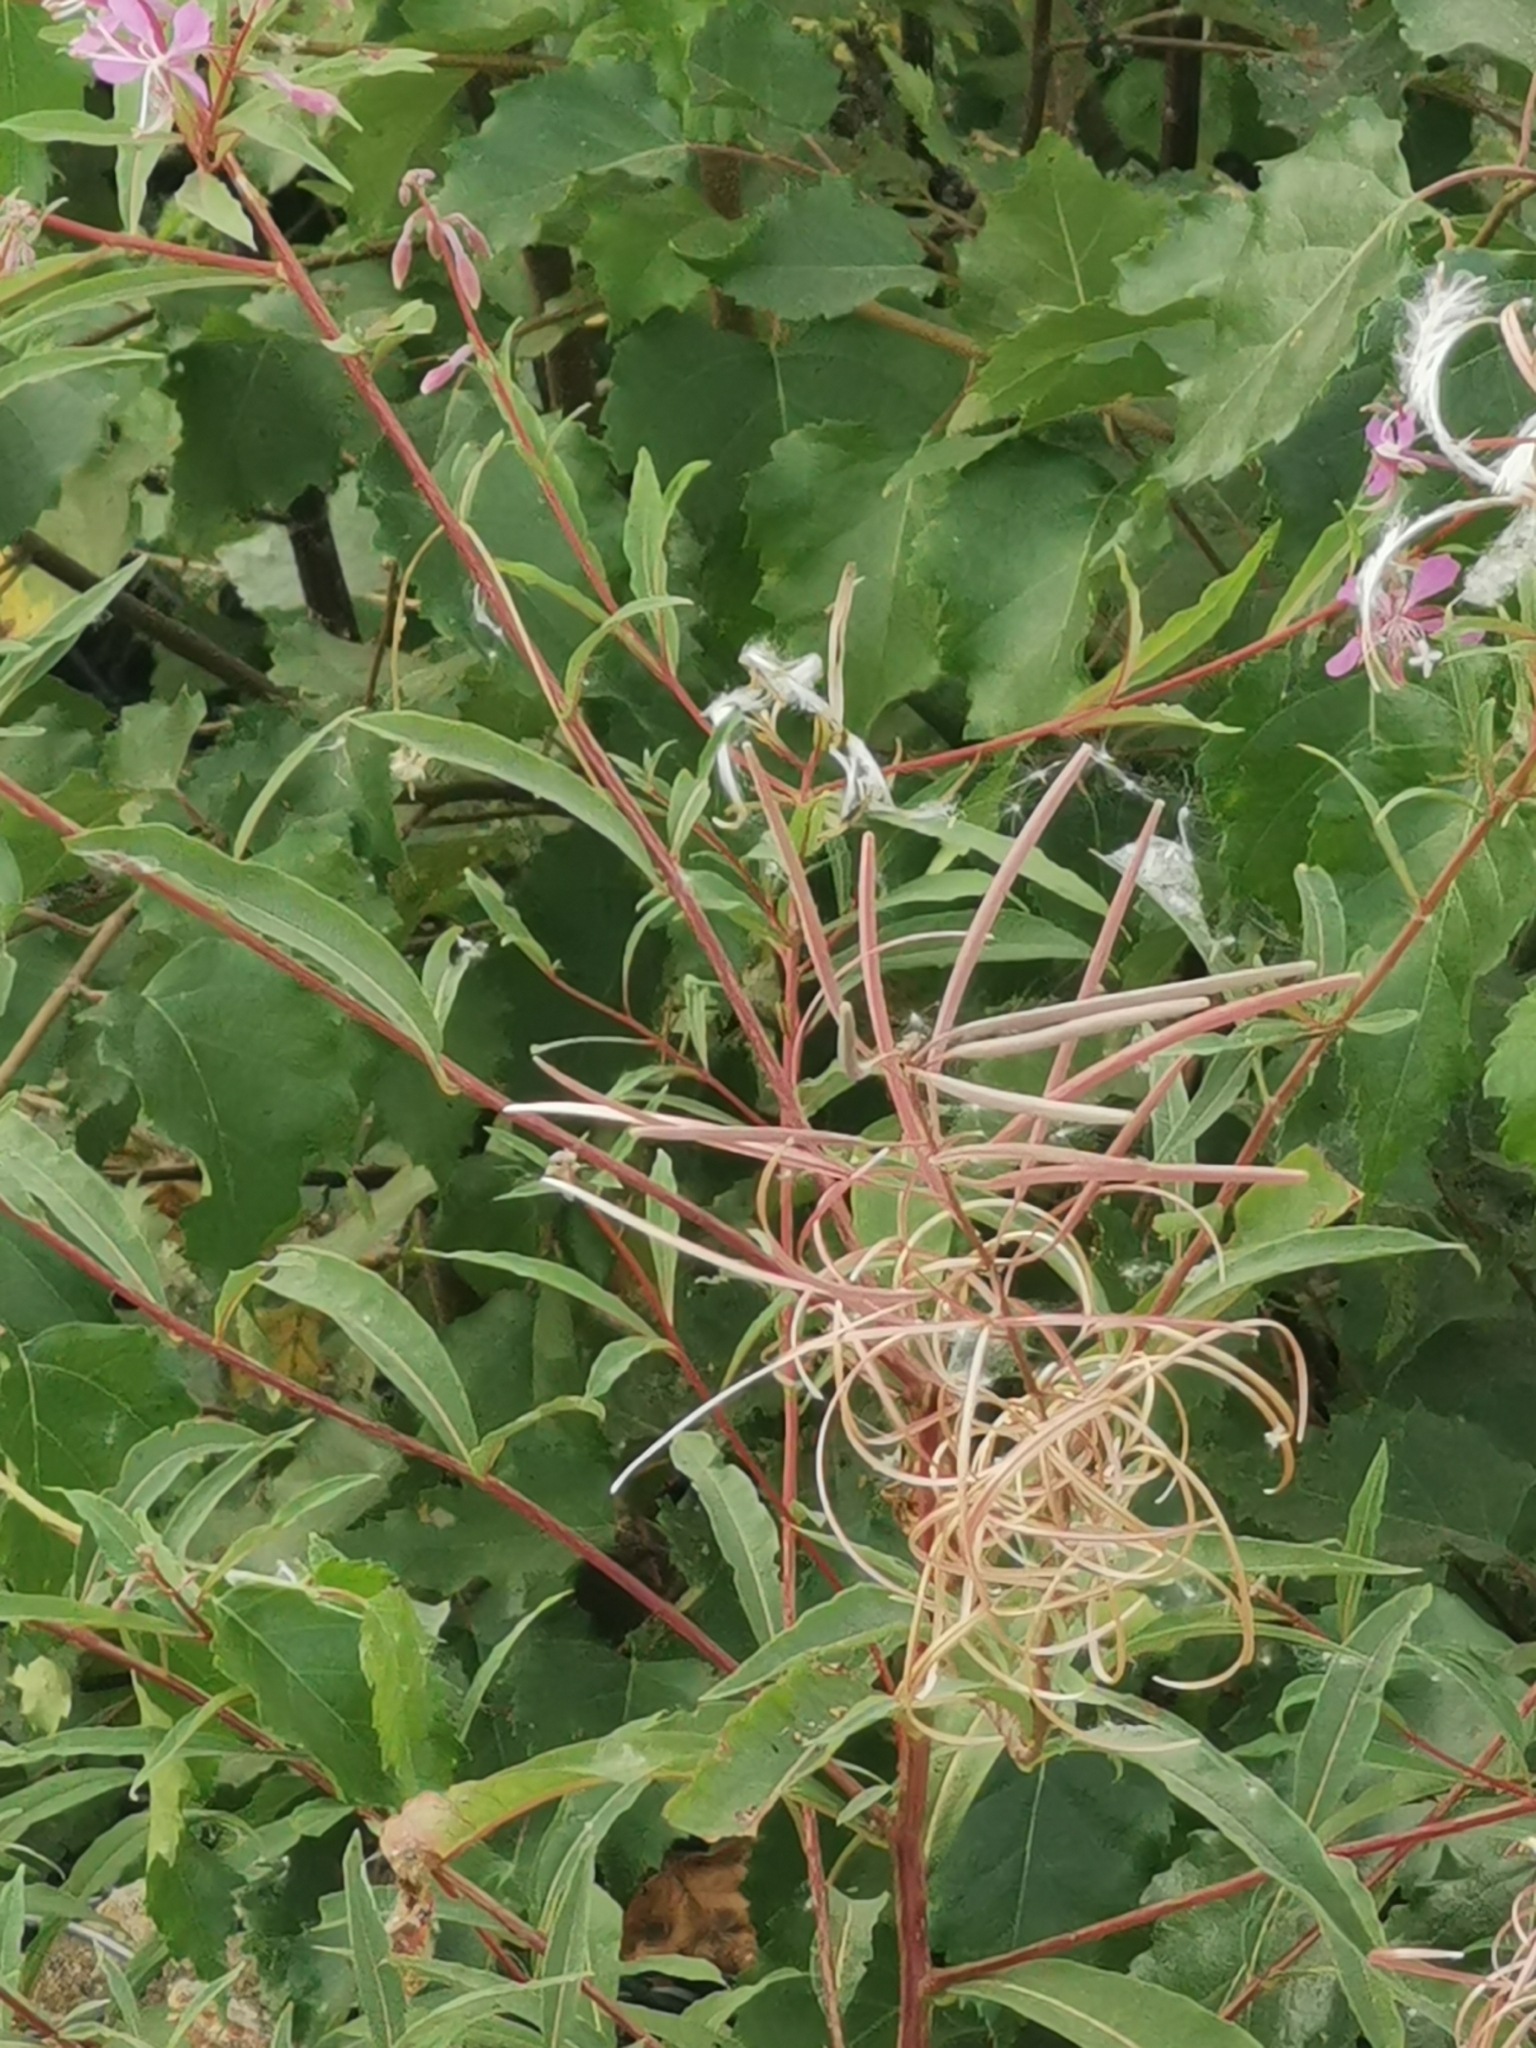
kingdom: Plantae
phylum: Tracheophyta
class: Magnoliopsida
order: Myrtales
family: Onagraceae
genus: Chamaenerion
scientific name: Chamaenerion angustifolium
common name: Fireweed
